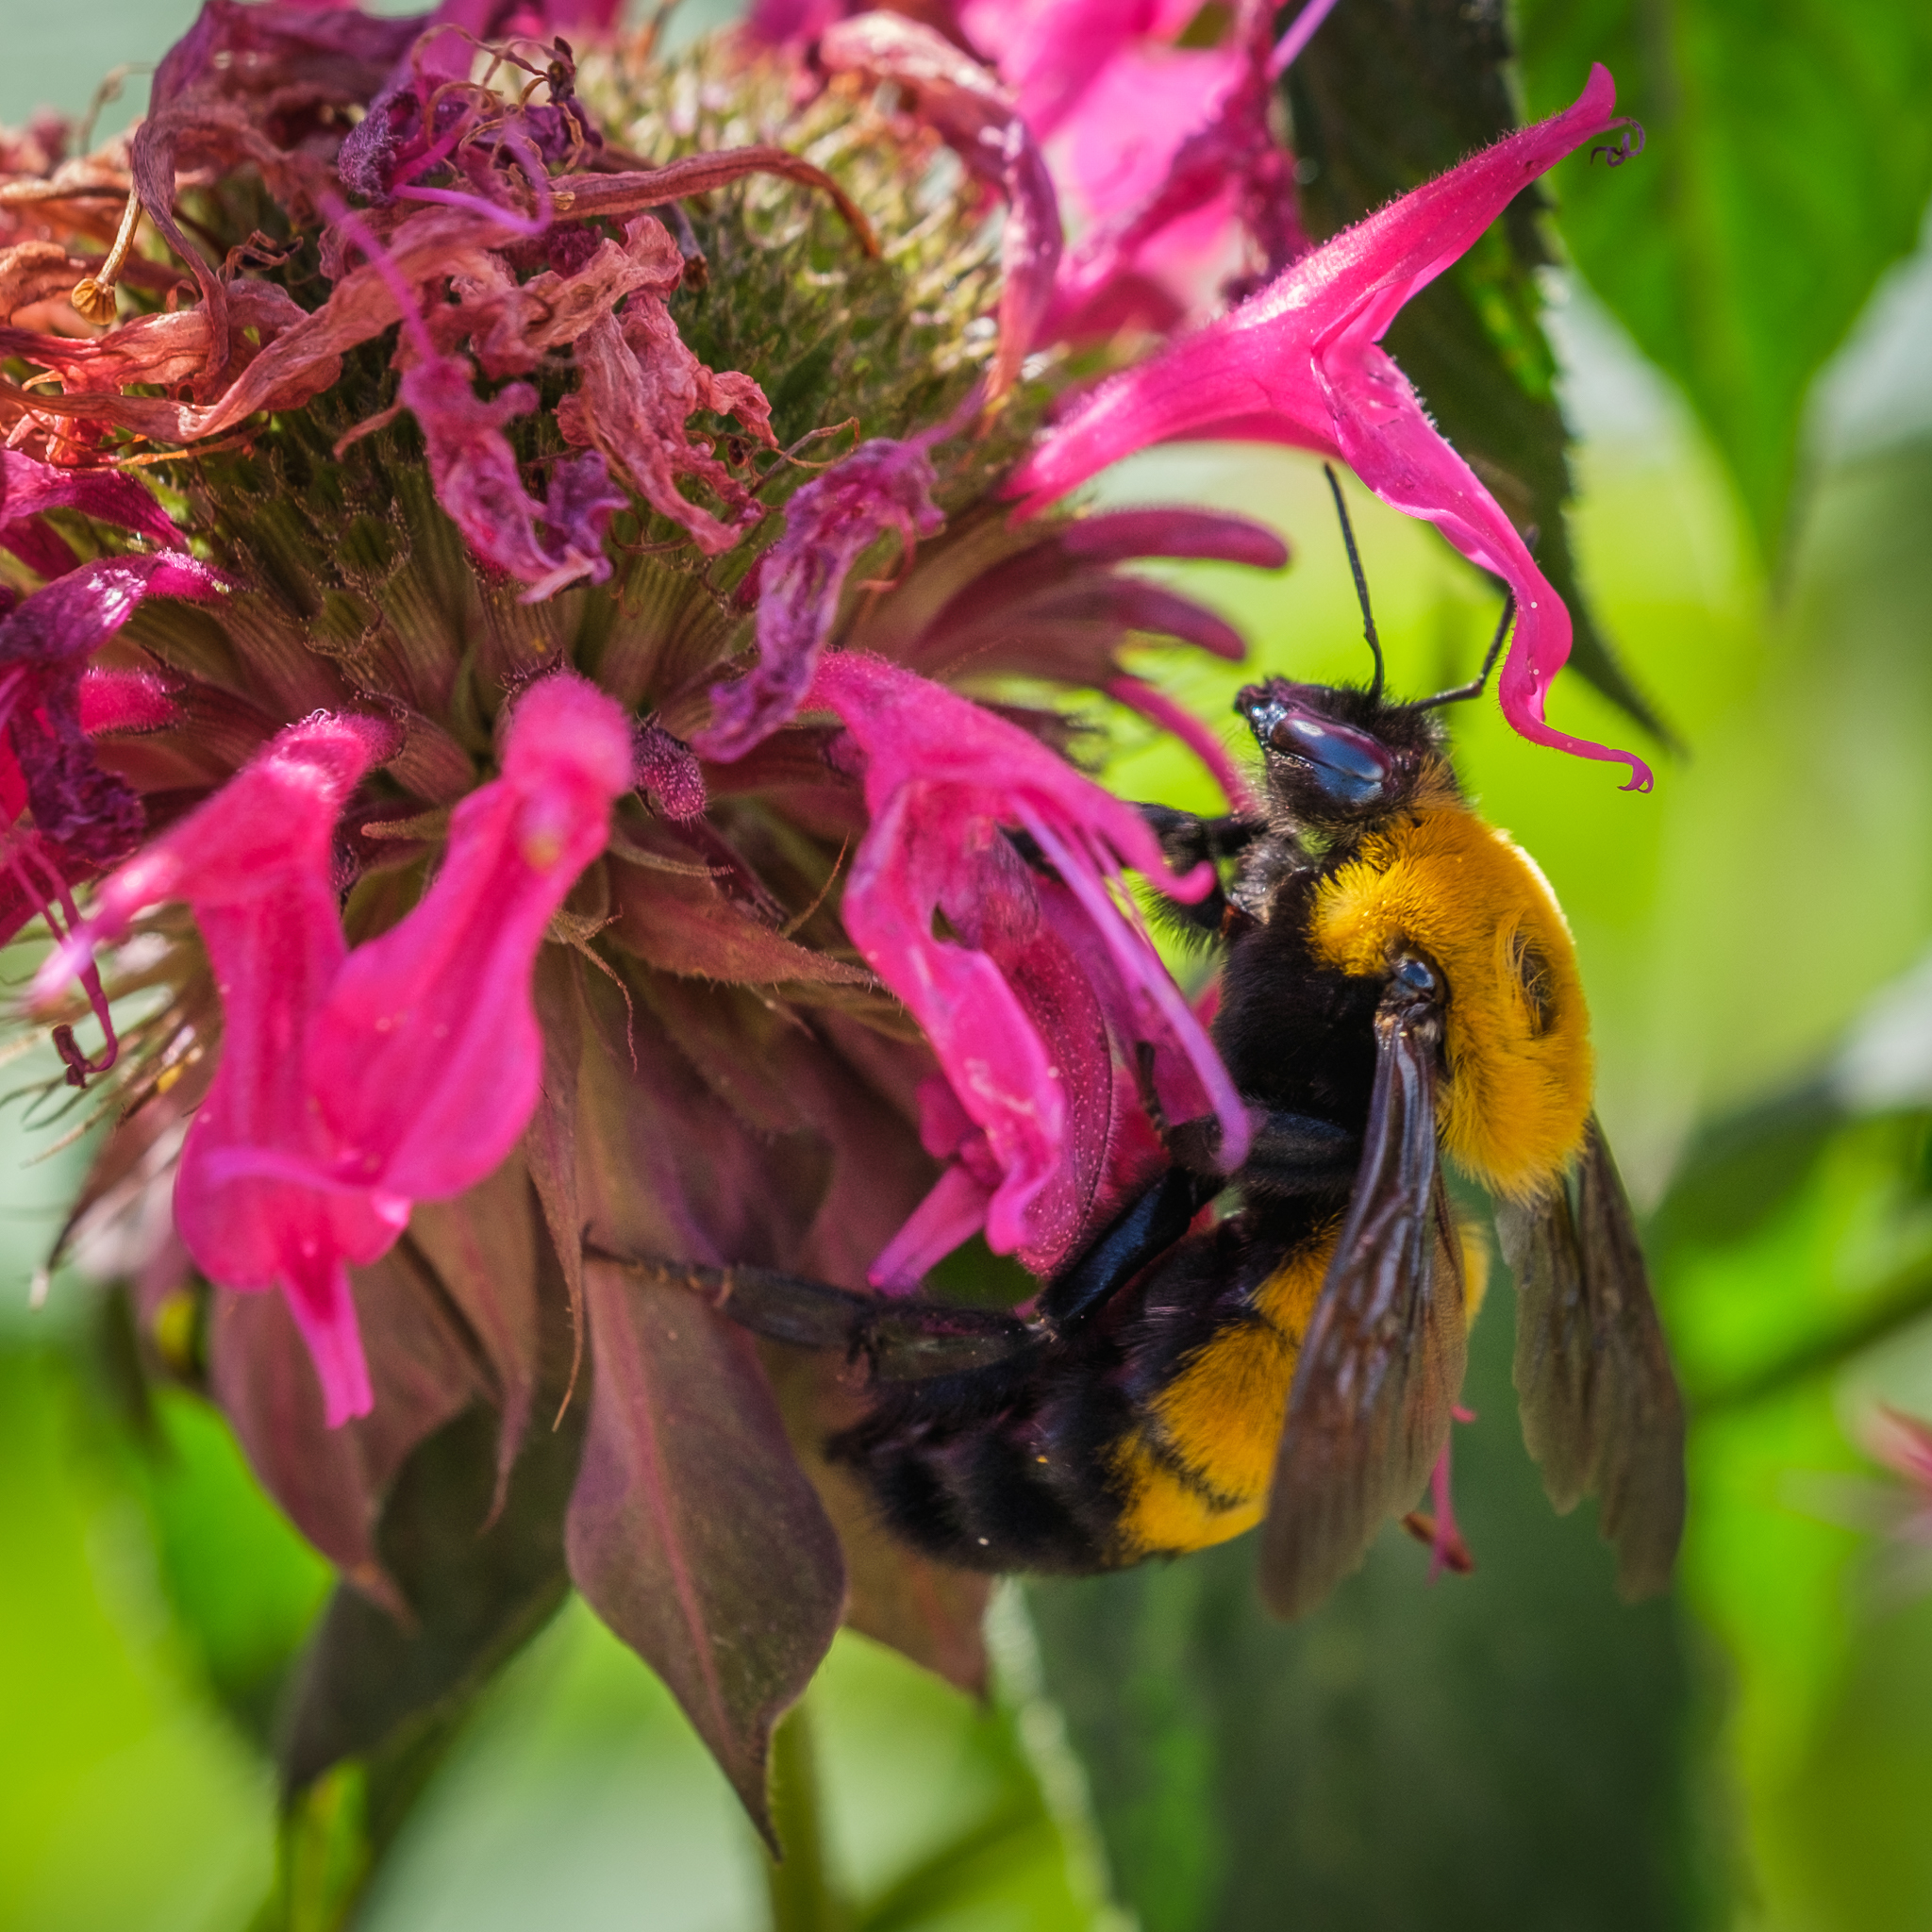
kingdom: Animalia
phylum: Arthropoda
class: Insecta
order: Hymenoptera
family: Apidae
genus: Bombus
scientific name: Bombus morrisoni
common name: Morrison bumble bee
